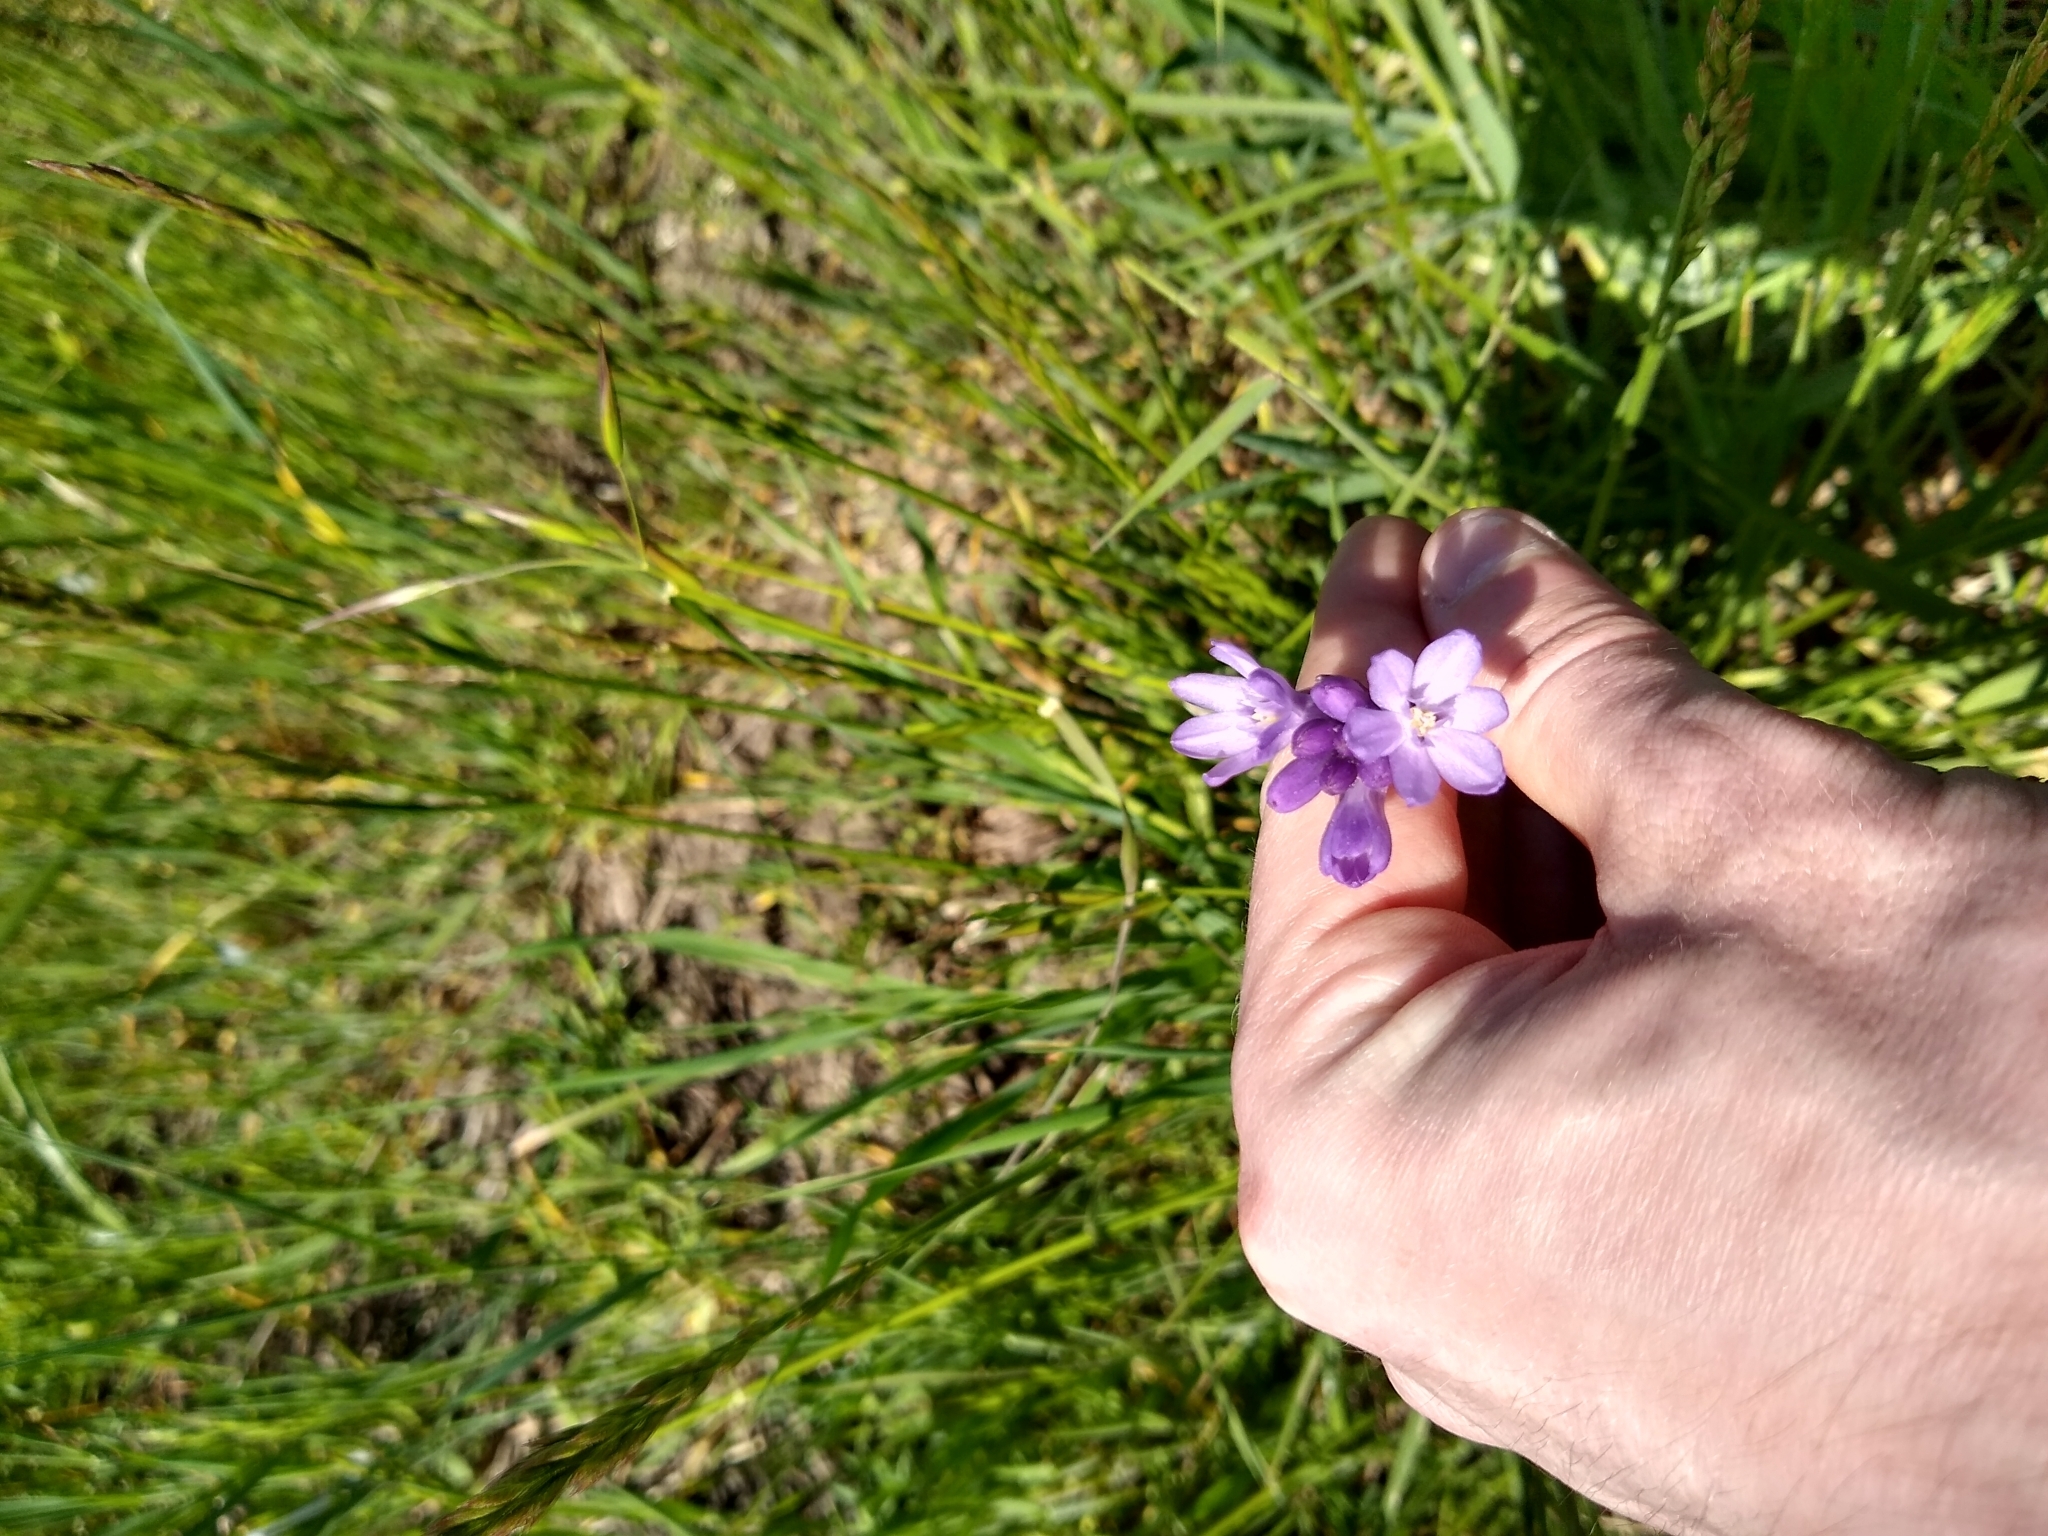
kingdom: Plantae
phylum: Tracheophyta
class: Liliopsida
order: Asparagales
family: Asparagaceae
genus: Dichelostemma
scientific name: Dichelostemma congestum
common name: Fork-tooth ookow
